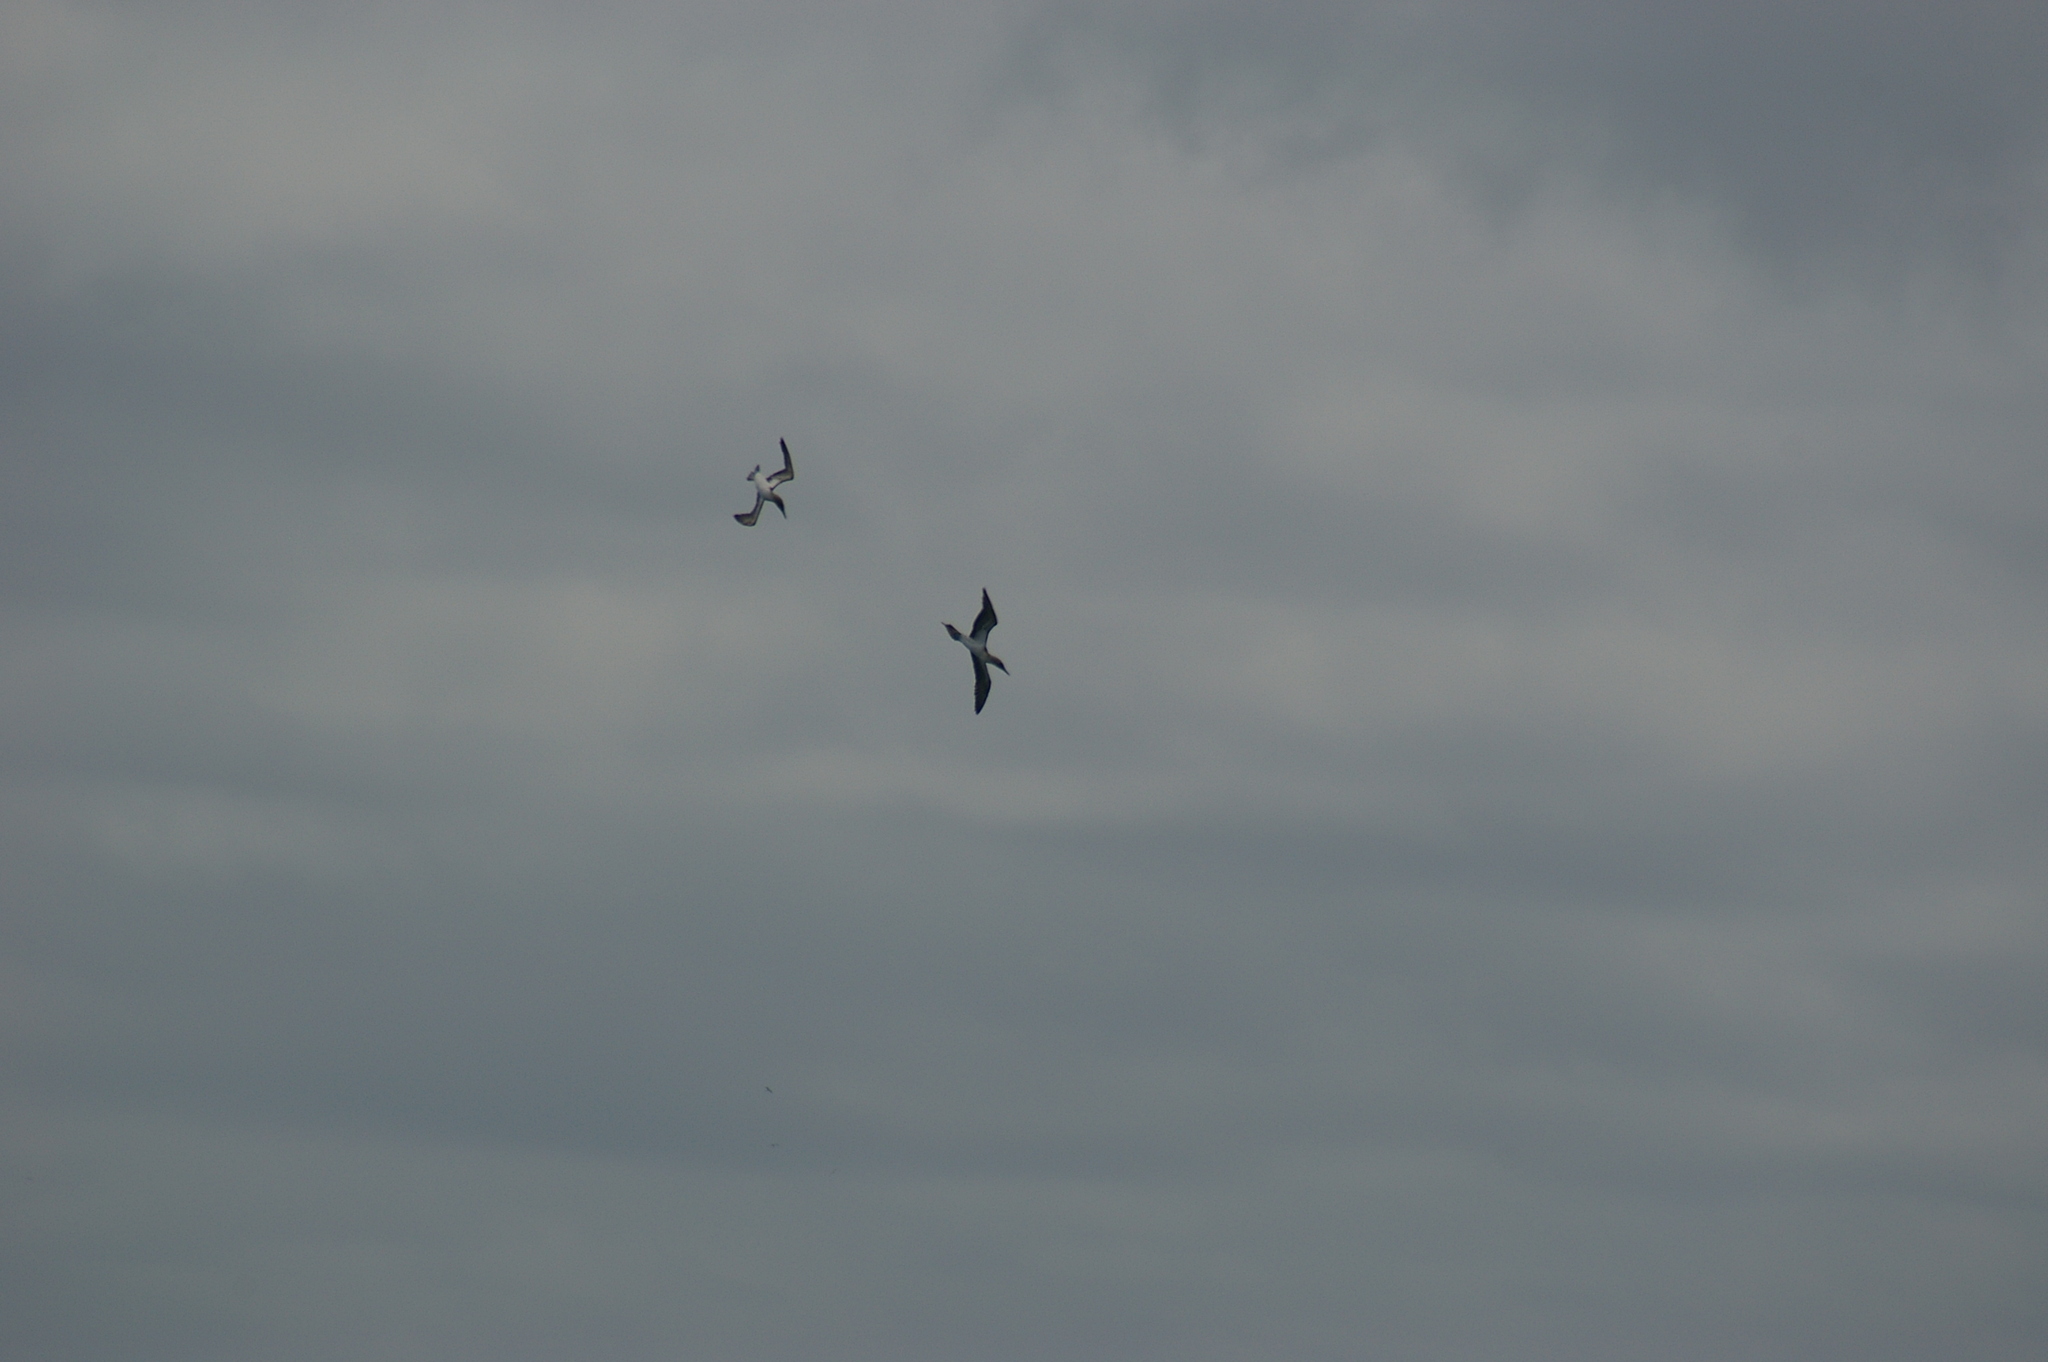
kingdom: Animalia
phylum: Chordata
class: Aves
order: Suliformes
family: Sulidae
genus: Sula
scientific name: Sula nebouxii
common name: Blue-footed booby
